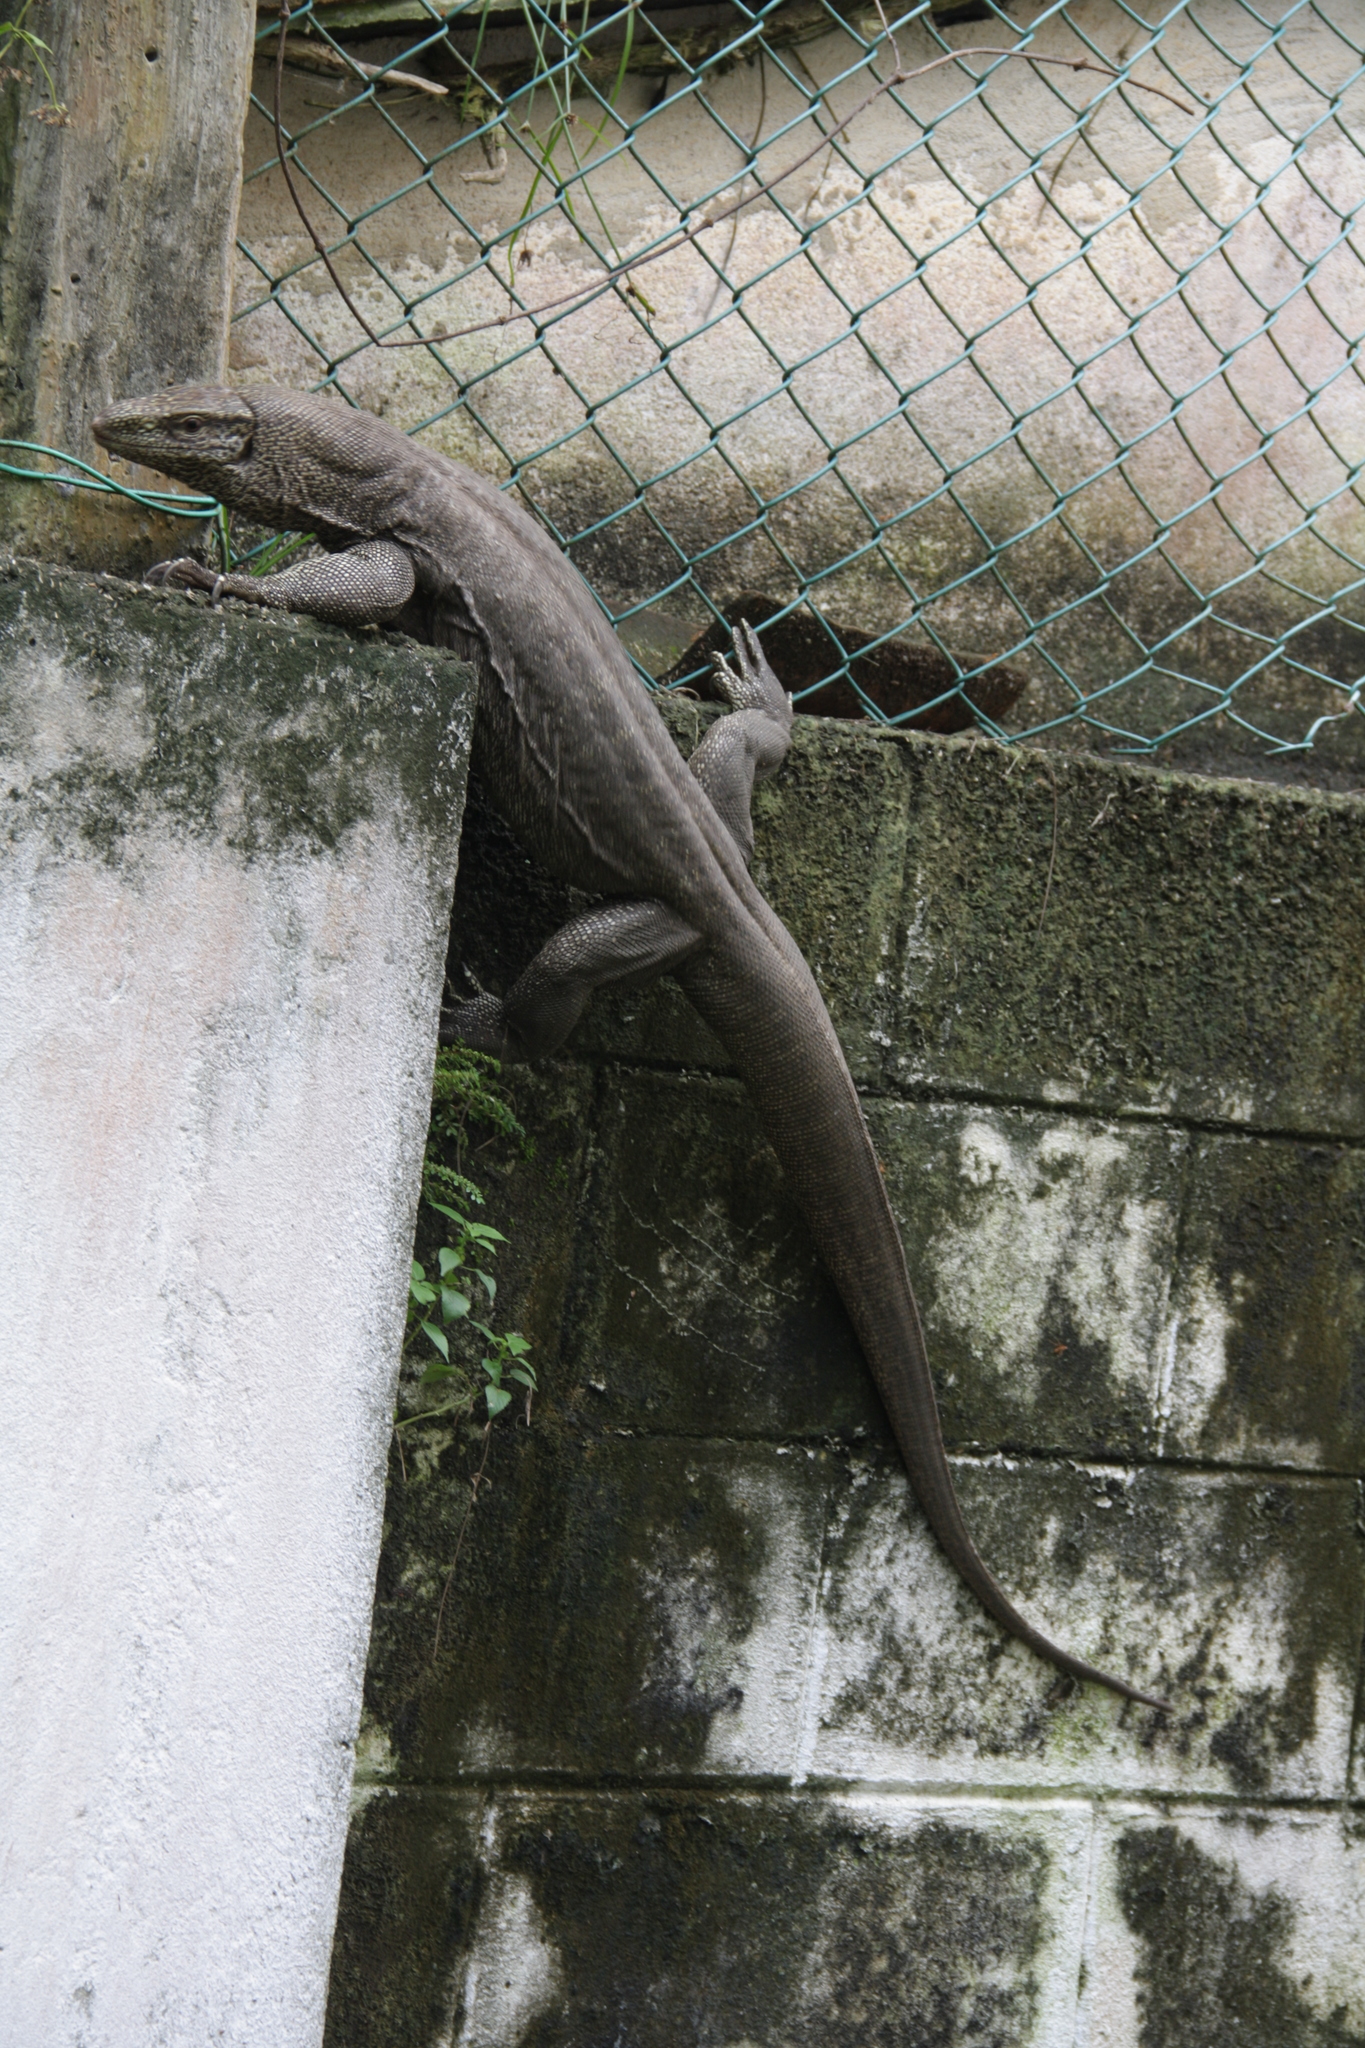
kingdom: Animalia
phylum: Chordata
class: Squamata
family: Varanidae
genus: Varanus
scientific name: Varanus bengalensis
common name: Bengal monitor
